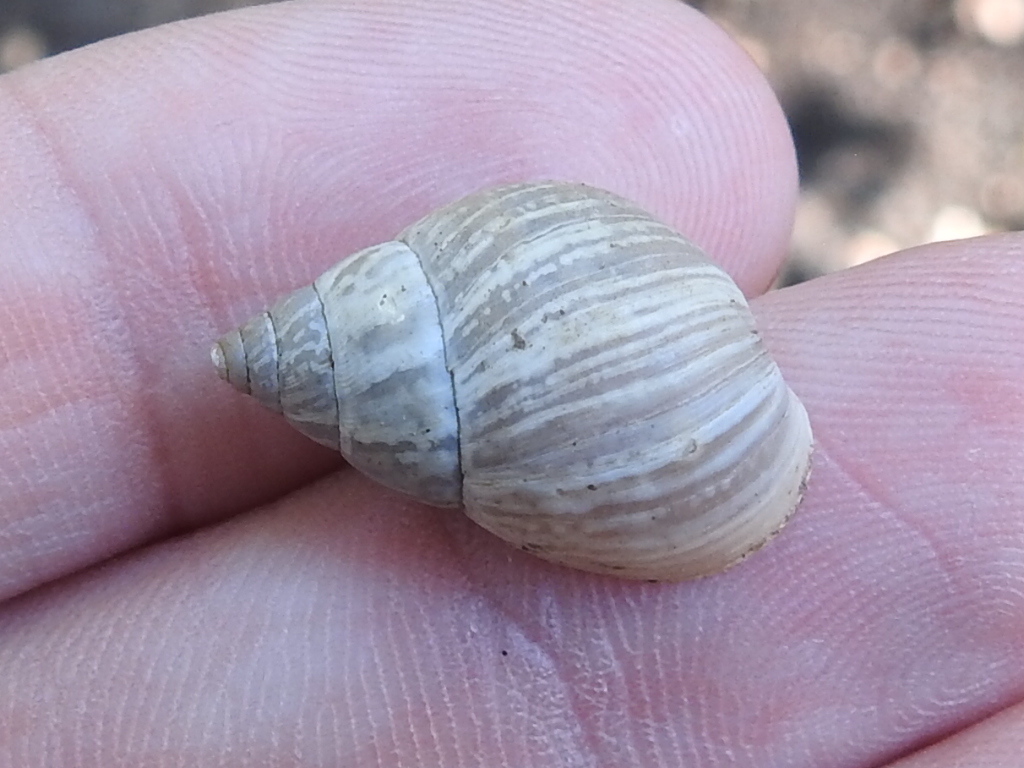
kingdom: Animalia
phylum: Mollusca
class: Gastropoda
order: Stylommatophora
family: Bulimulidae
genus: Rabdotus
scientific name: Rabdotus dealbatus
